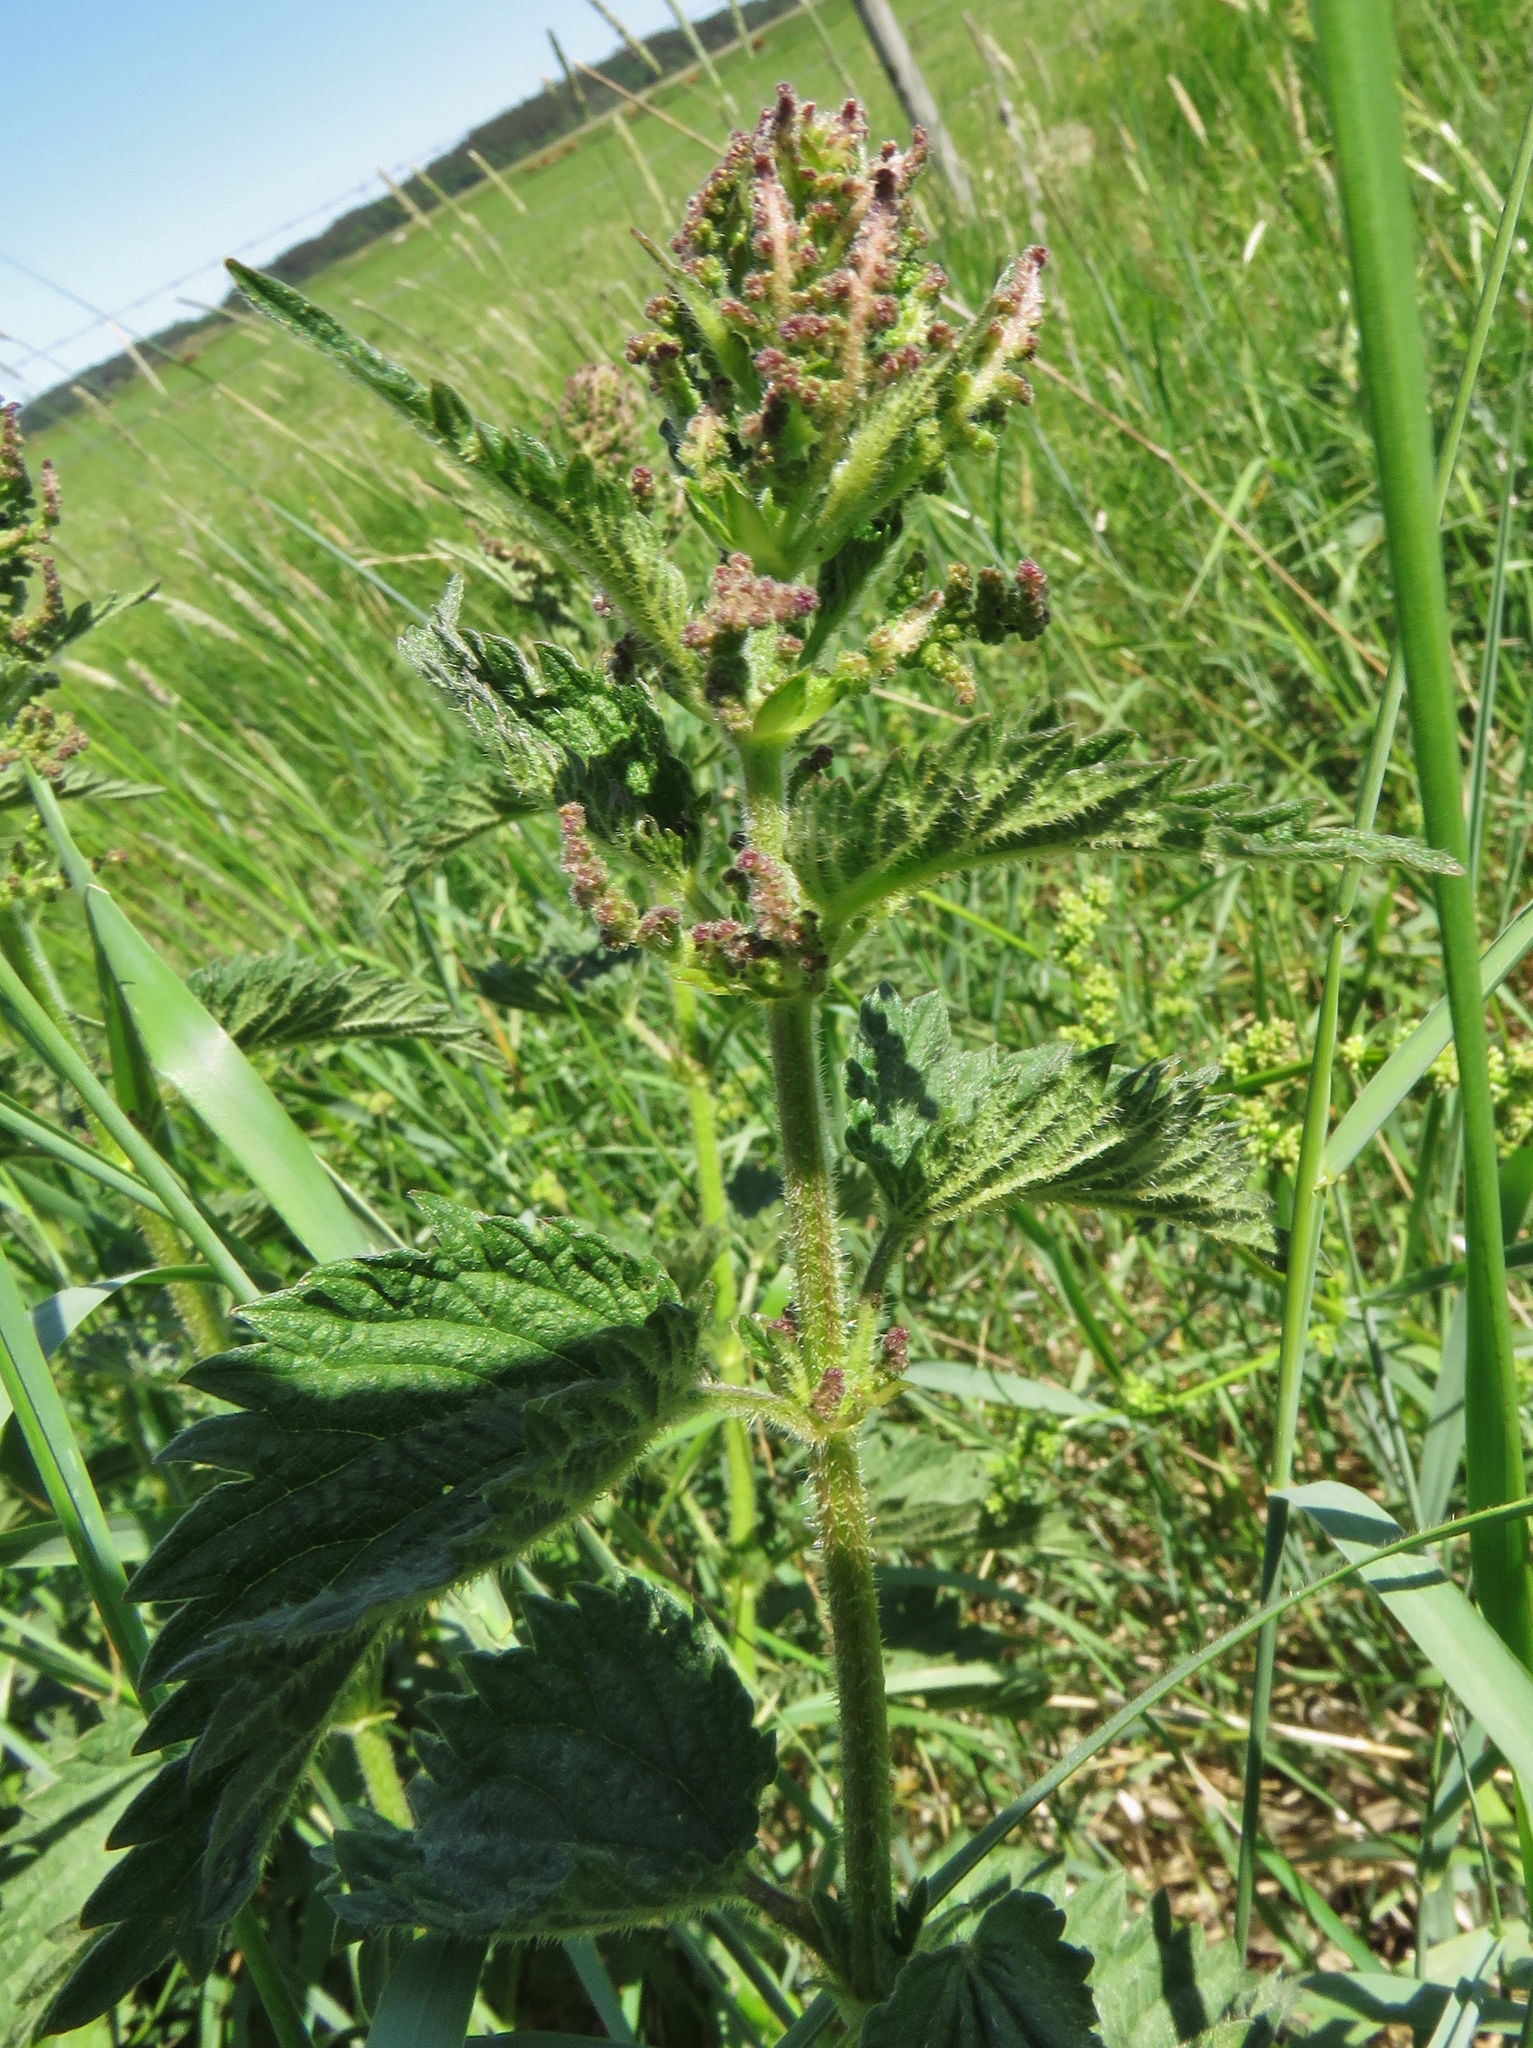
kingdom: Plantae
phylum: Tracheophyta
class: Magnoliopsida
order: Rosales
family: Urticaceae
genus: Urtica
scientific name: Urtica dioica
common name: Common nettle
